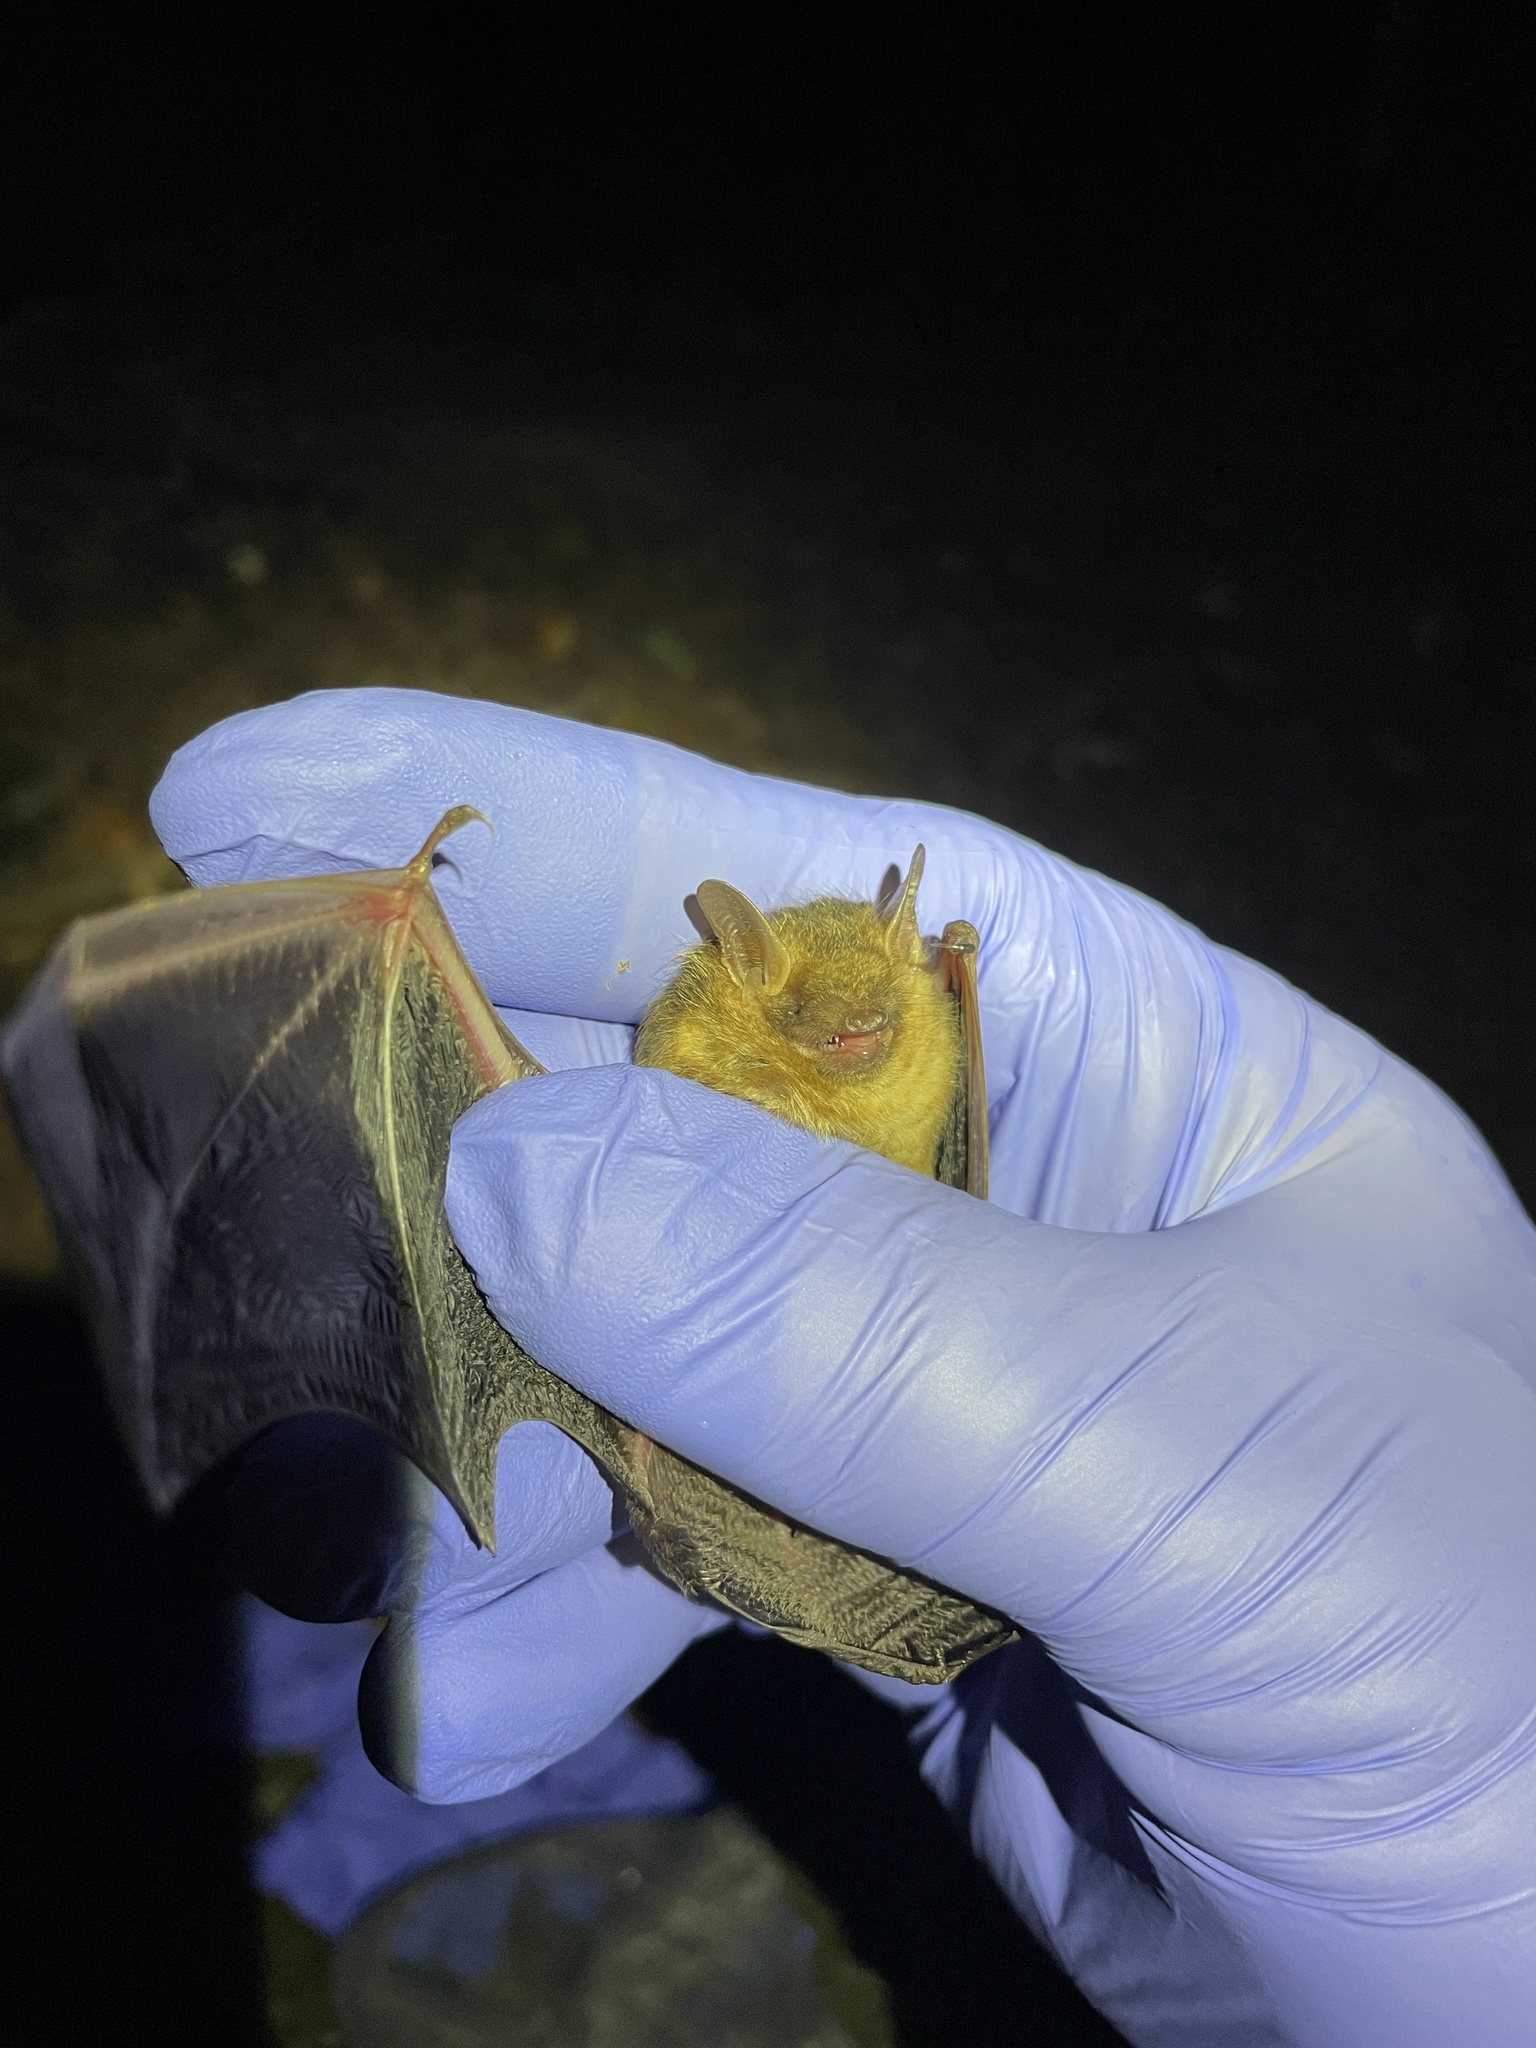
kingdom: Animalia
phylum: Chordata
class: Mammalia
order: Chiroptera
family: Vespertilionidae
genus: Perimyotis
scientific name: Perimyotis subflavus
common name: Eastern pipistrelle
